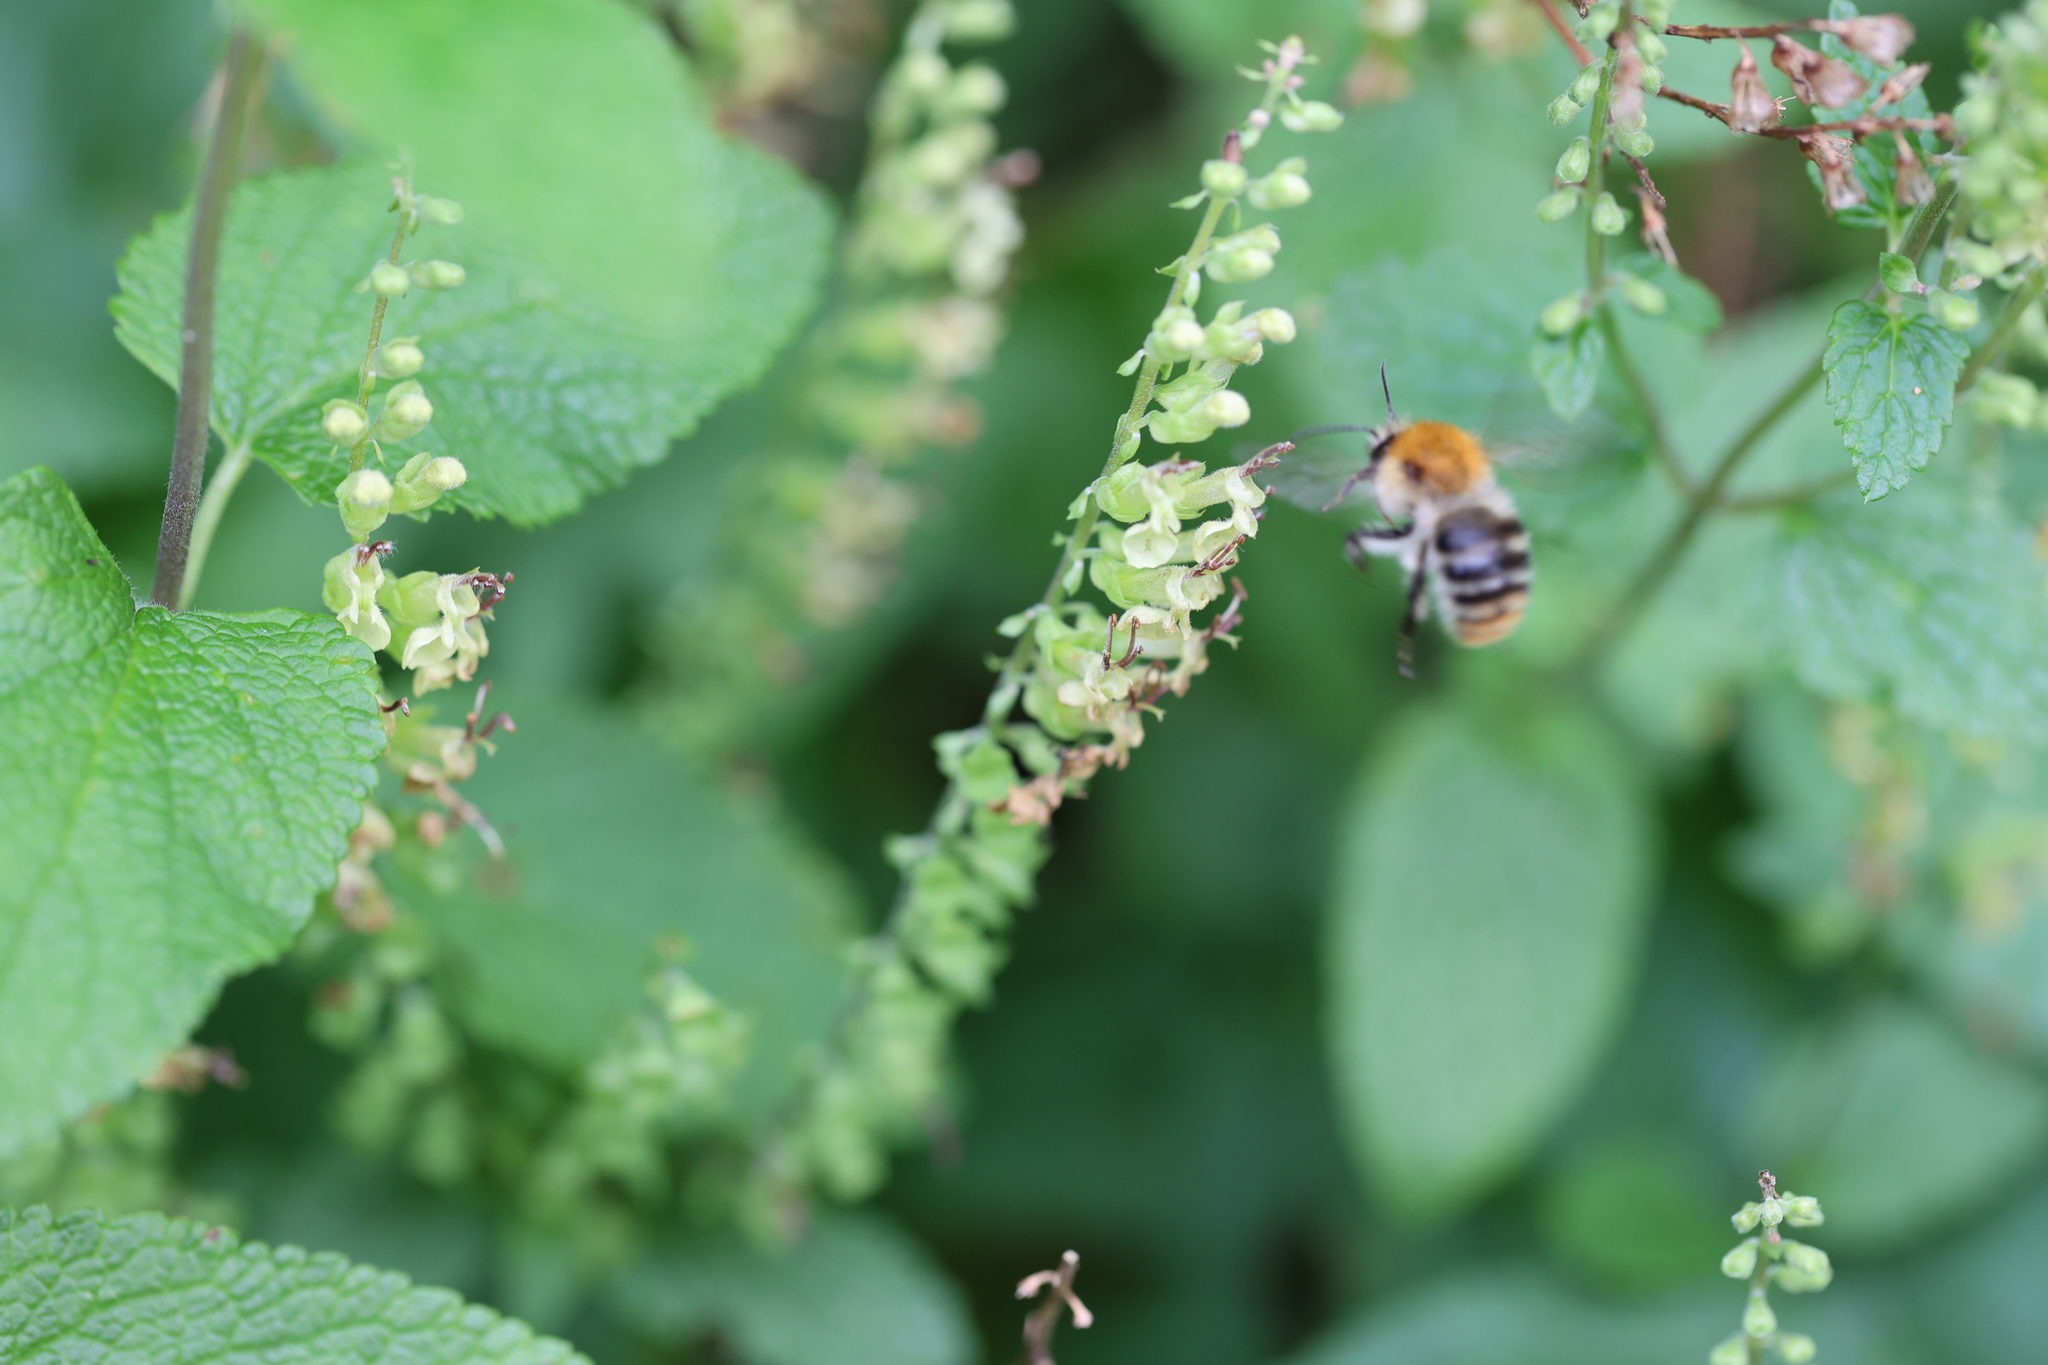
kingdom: Animalia
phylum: Arthropoda
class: Insecta
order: Hymenoptera
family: Apidae
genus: Bombus
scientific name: Bombus pascuorum
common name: Common carder bee
